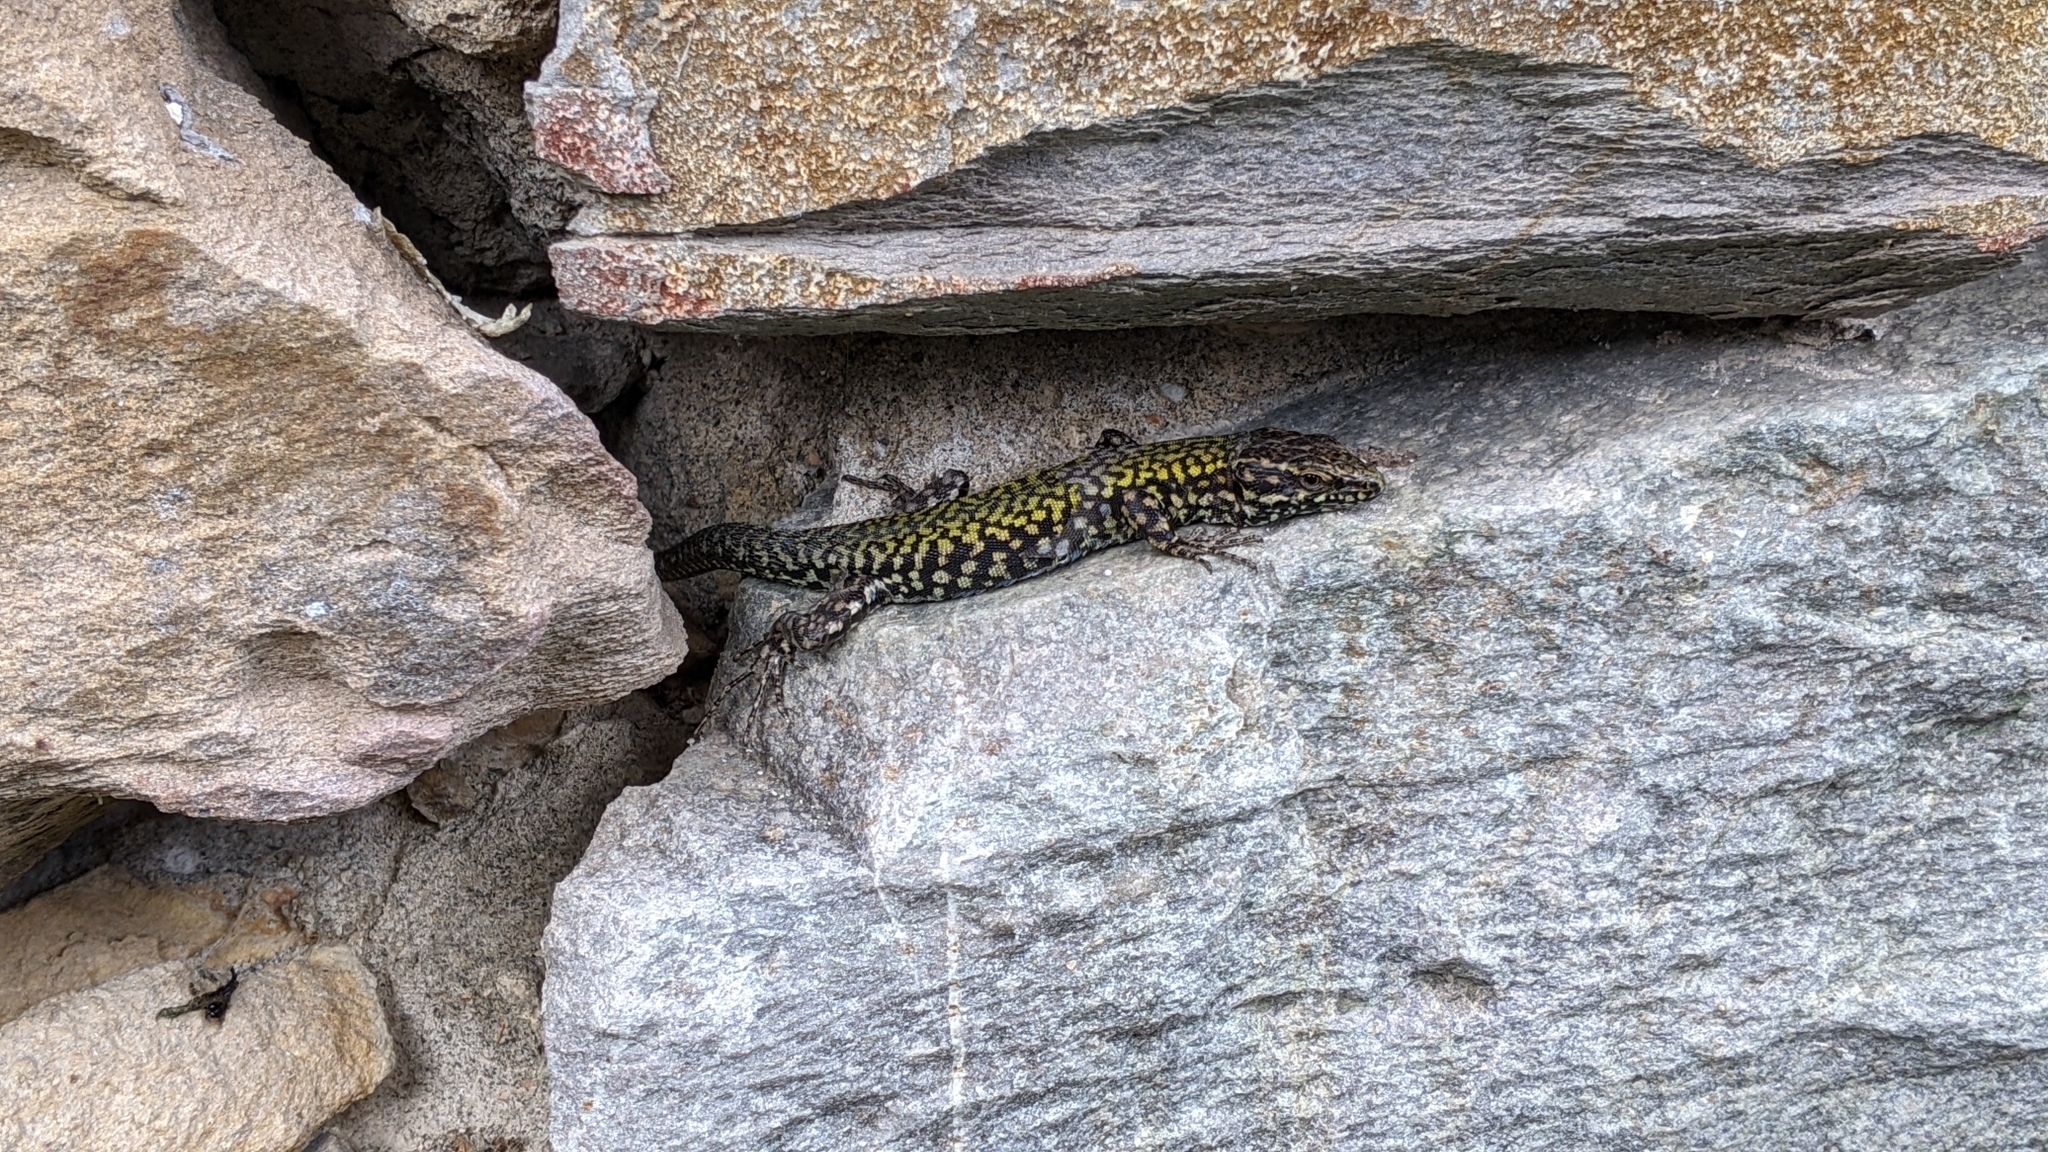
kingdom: Animalia
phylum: Chordata
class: Squamata
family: Lacertidae
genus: Podarcis
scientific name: Podarcis muralis
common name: Common wall lizard
